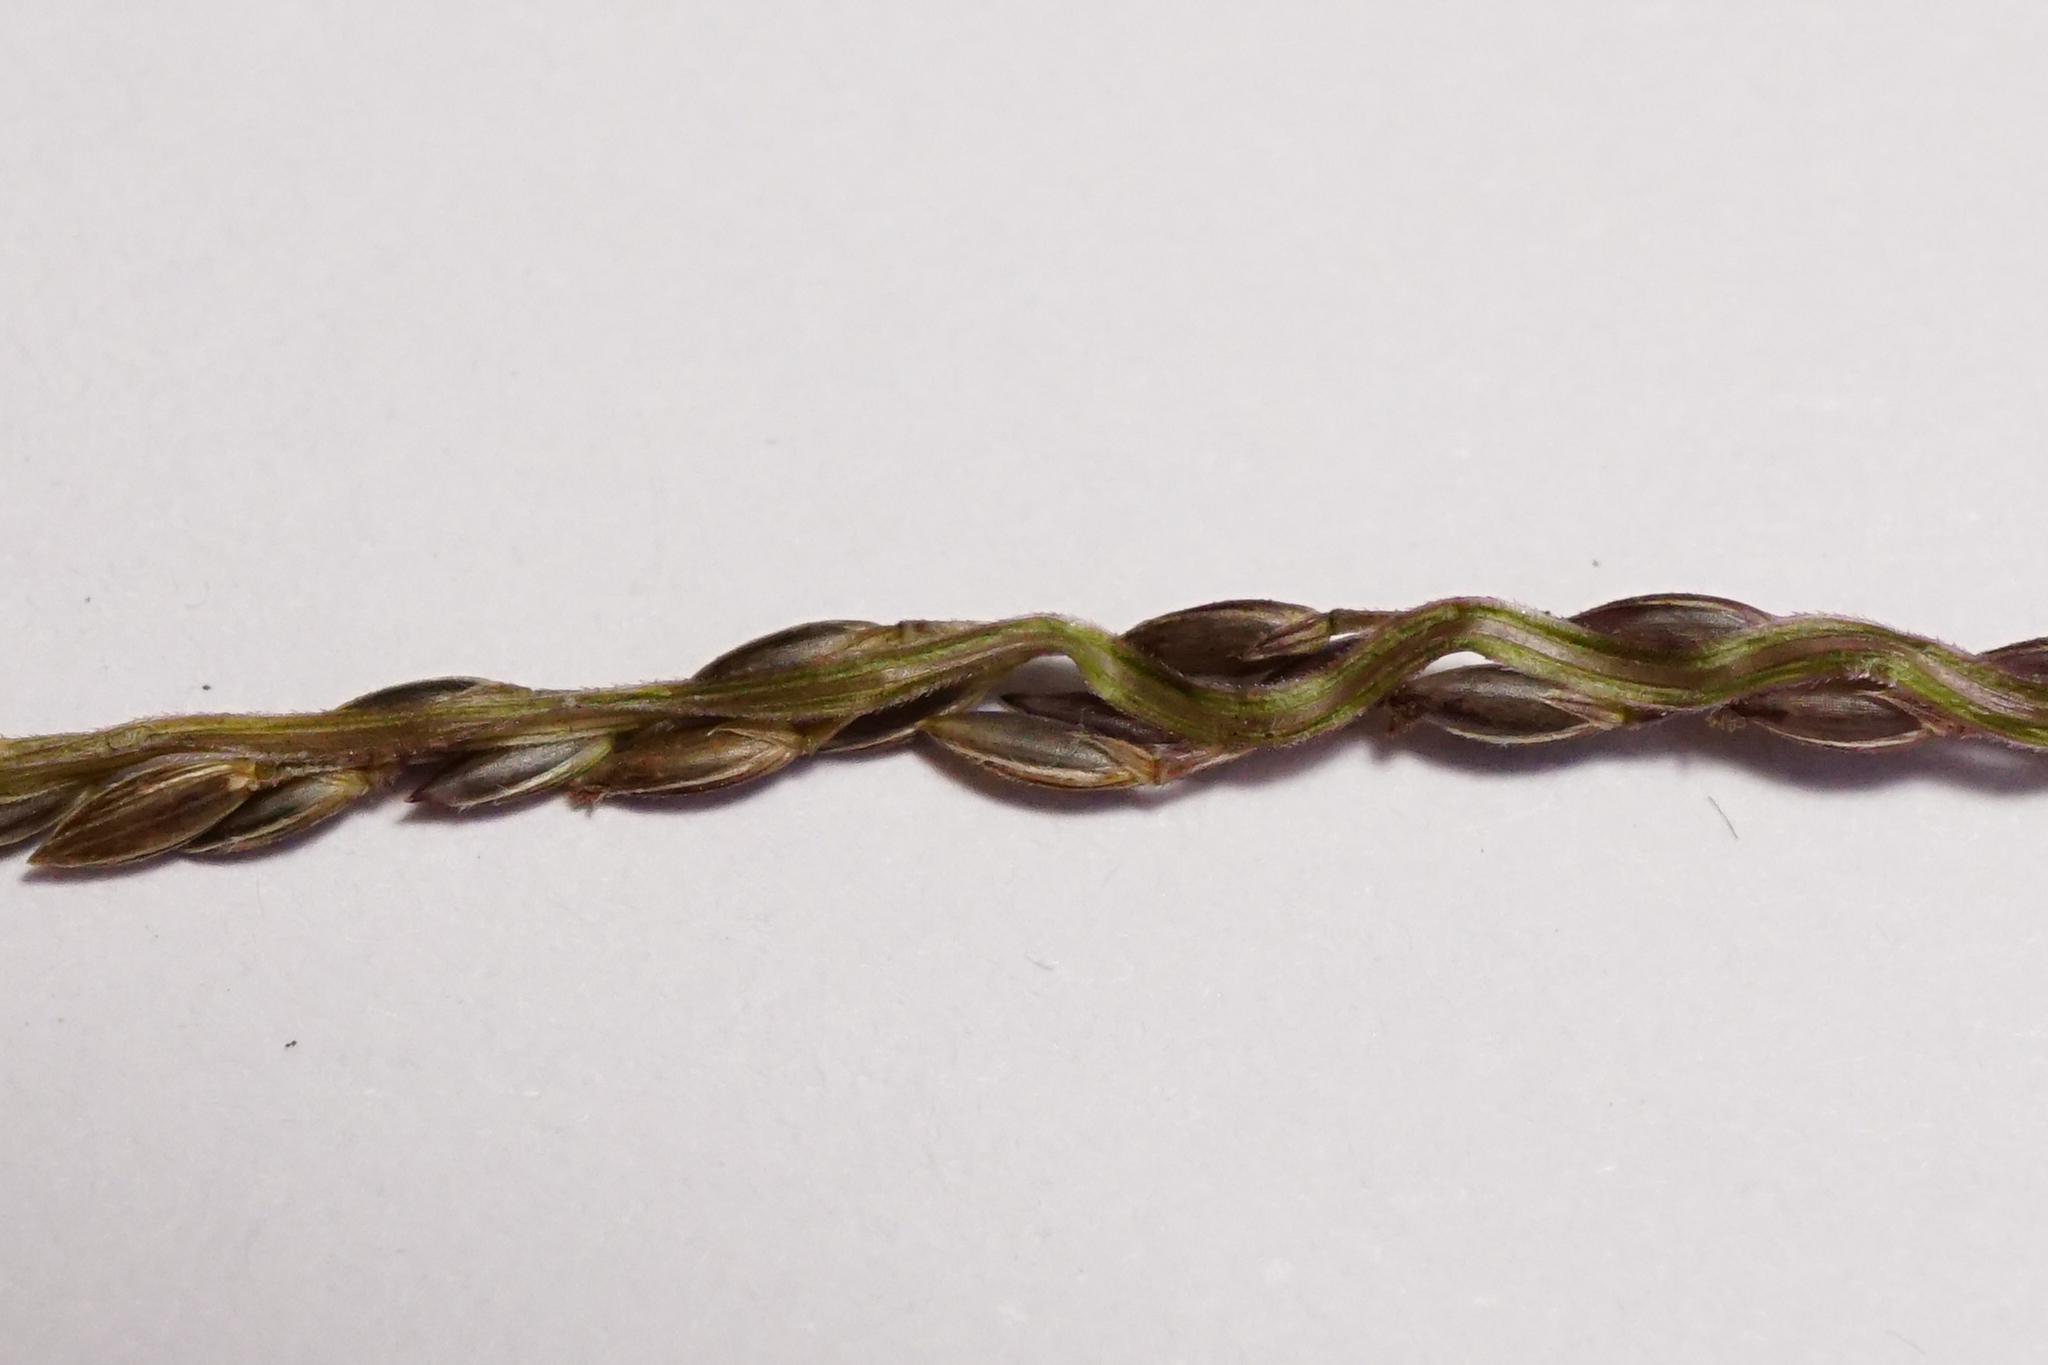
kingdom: Plantae
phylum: Tracheophyta
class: Liliopsida
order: Poales
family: Poaceae
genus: Digitaria
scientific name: Digitaria sanguinalis
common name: Hairy crabgrass
